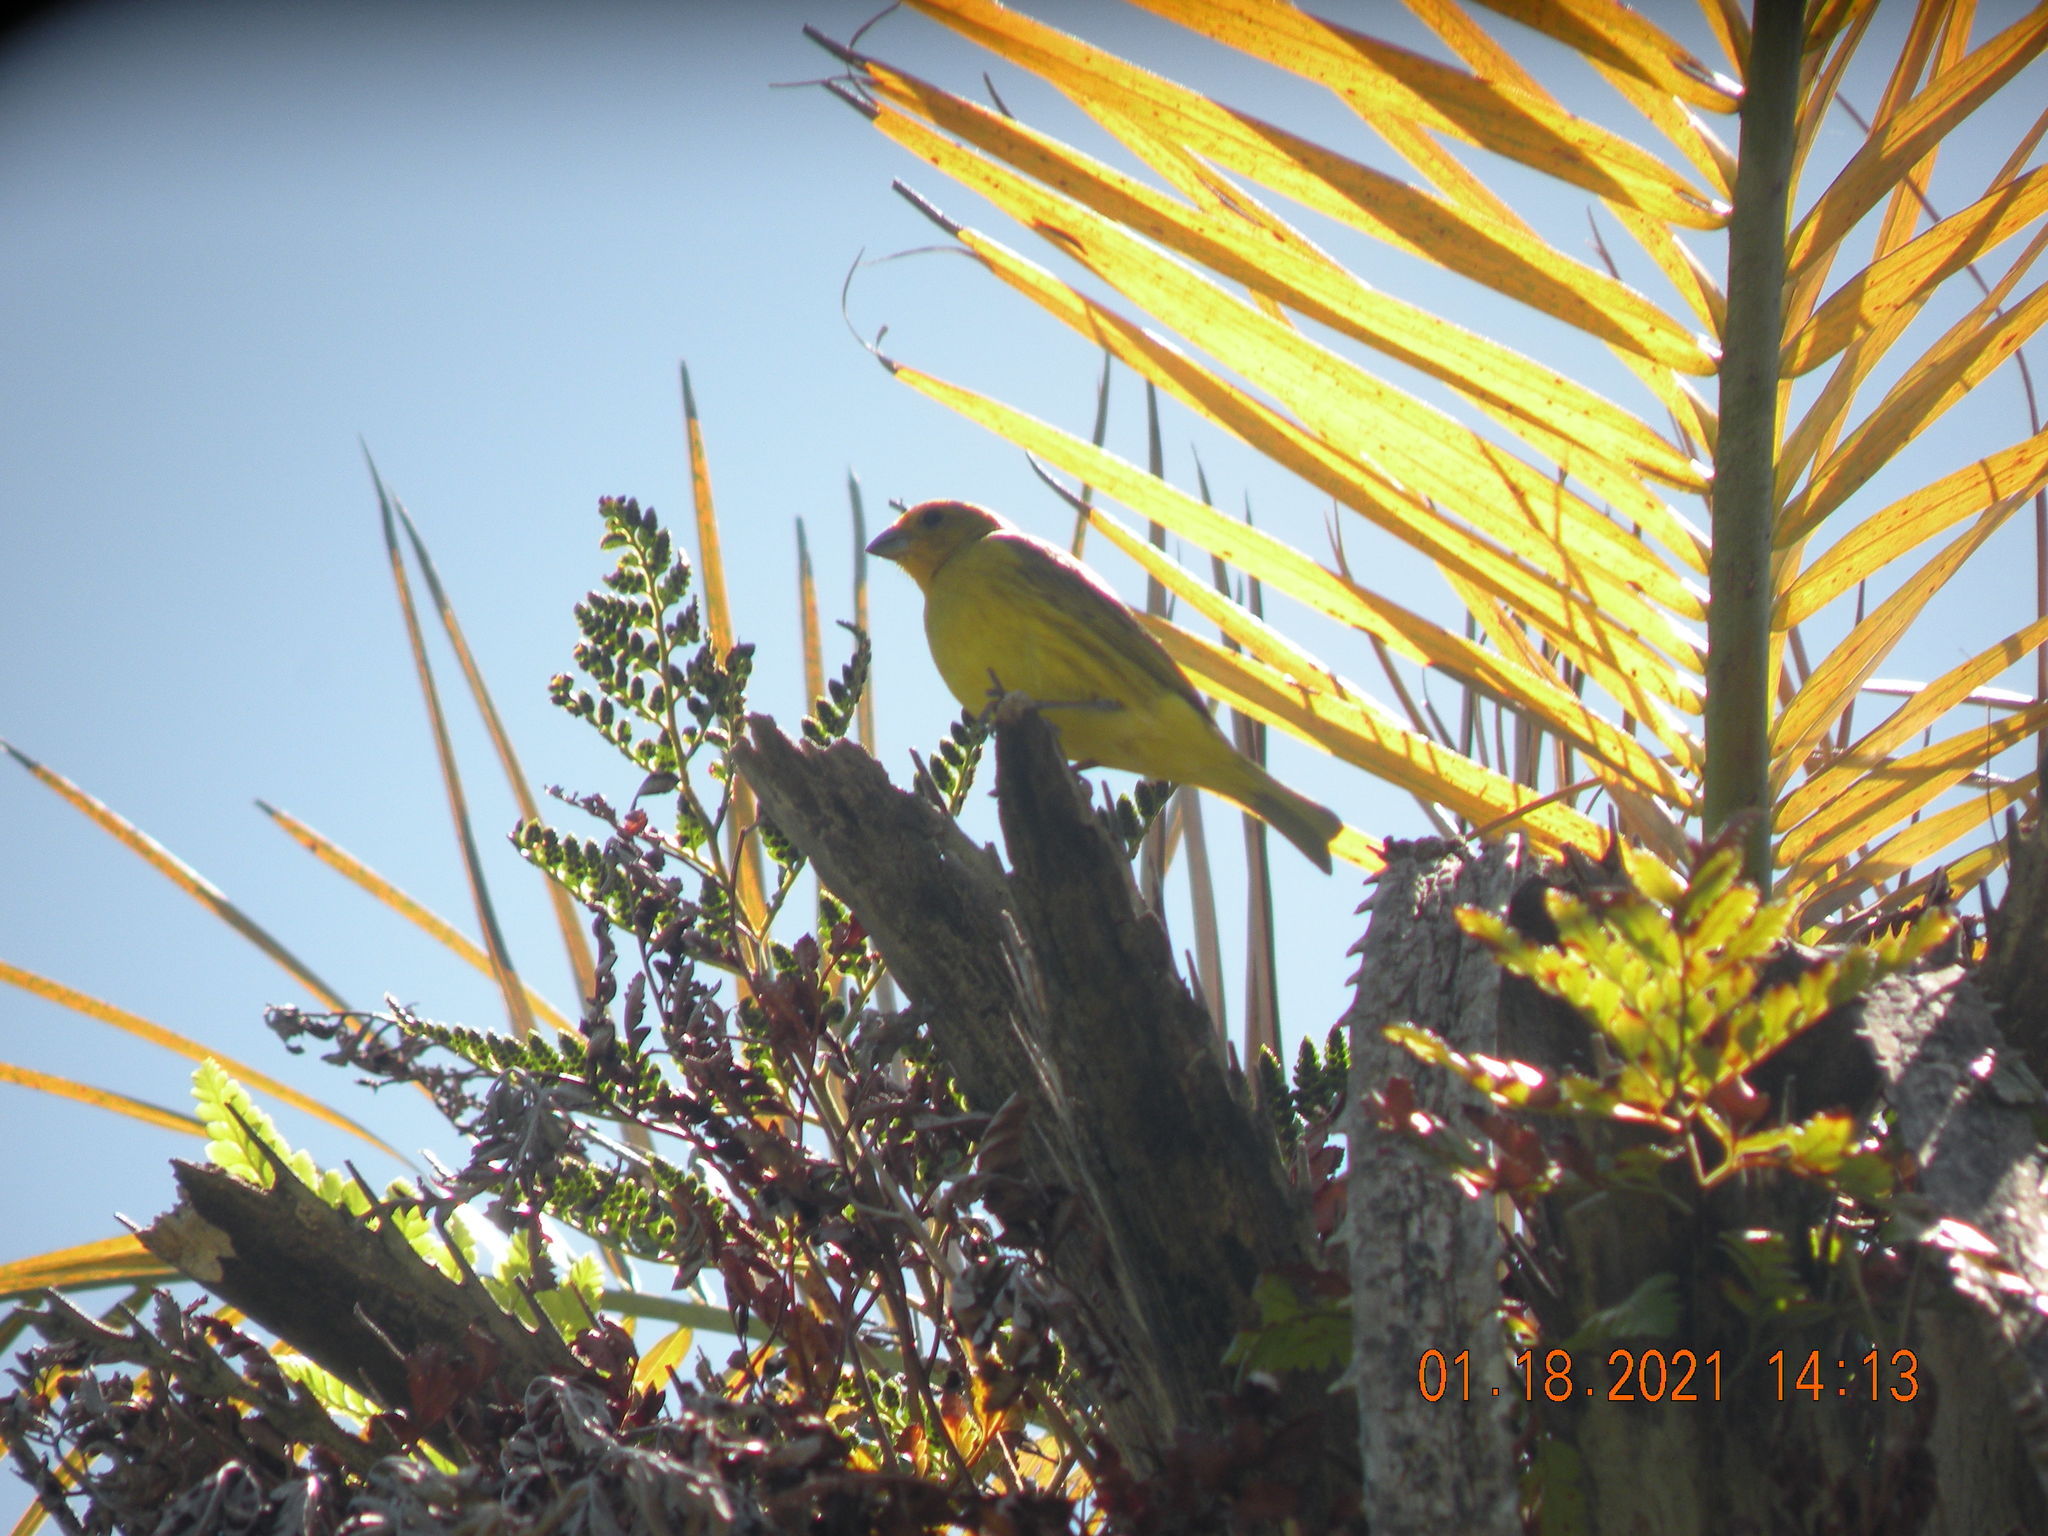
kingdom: Animalia
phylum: Chordata
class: Aves
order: Passeriformes
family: Thraupidae
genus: Sicalis
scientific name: Sicalis flaveola
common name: Saffron finch
